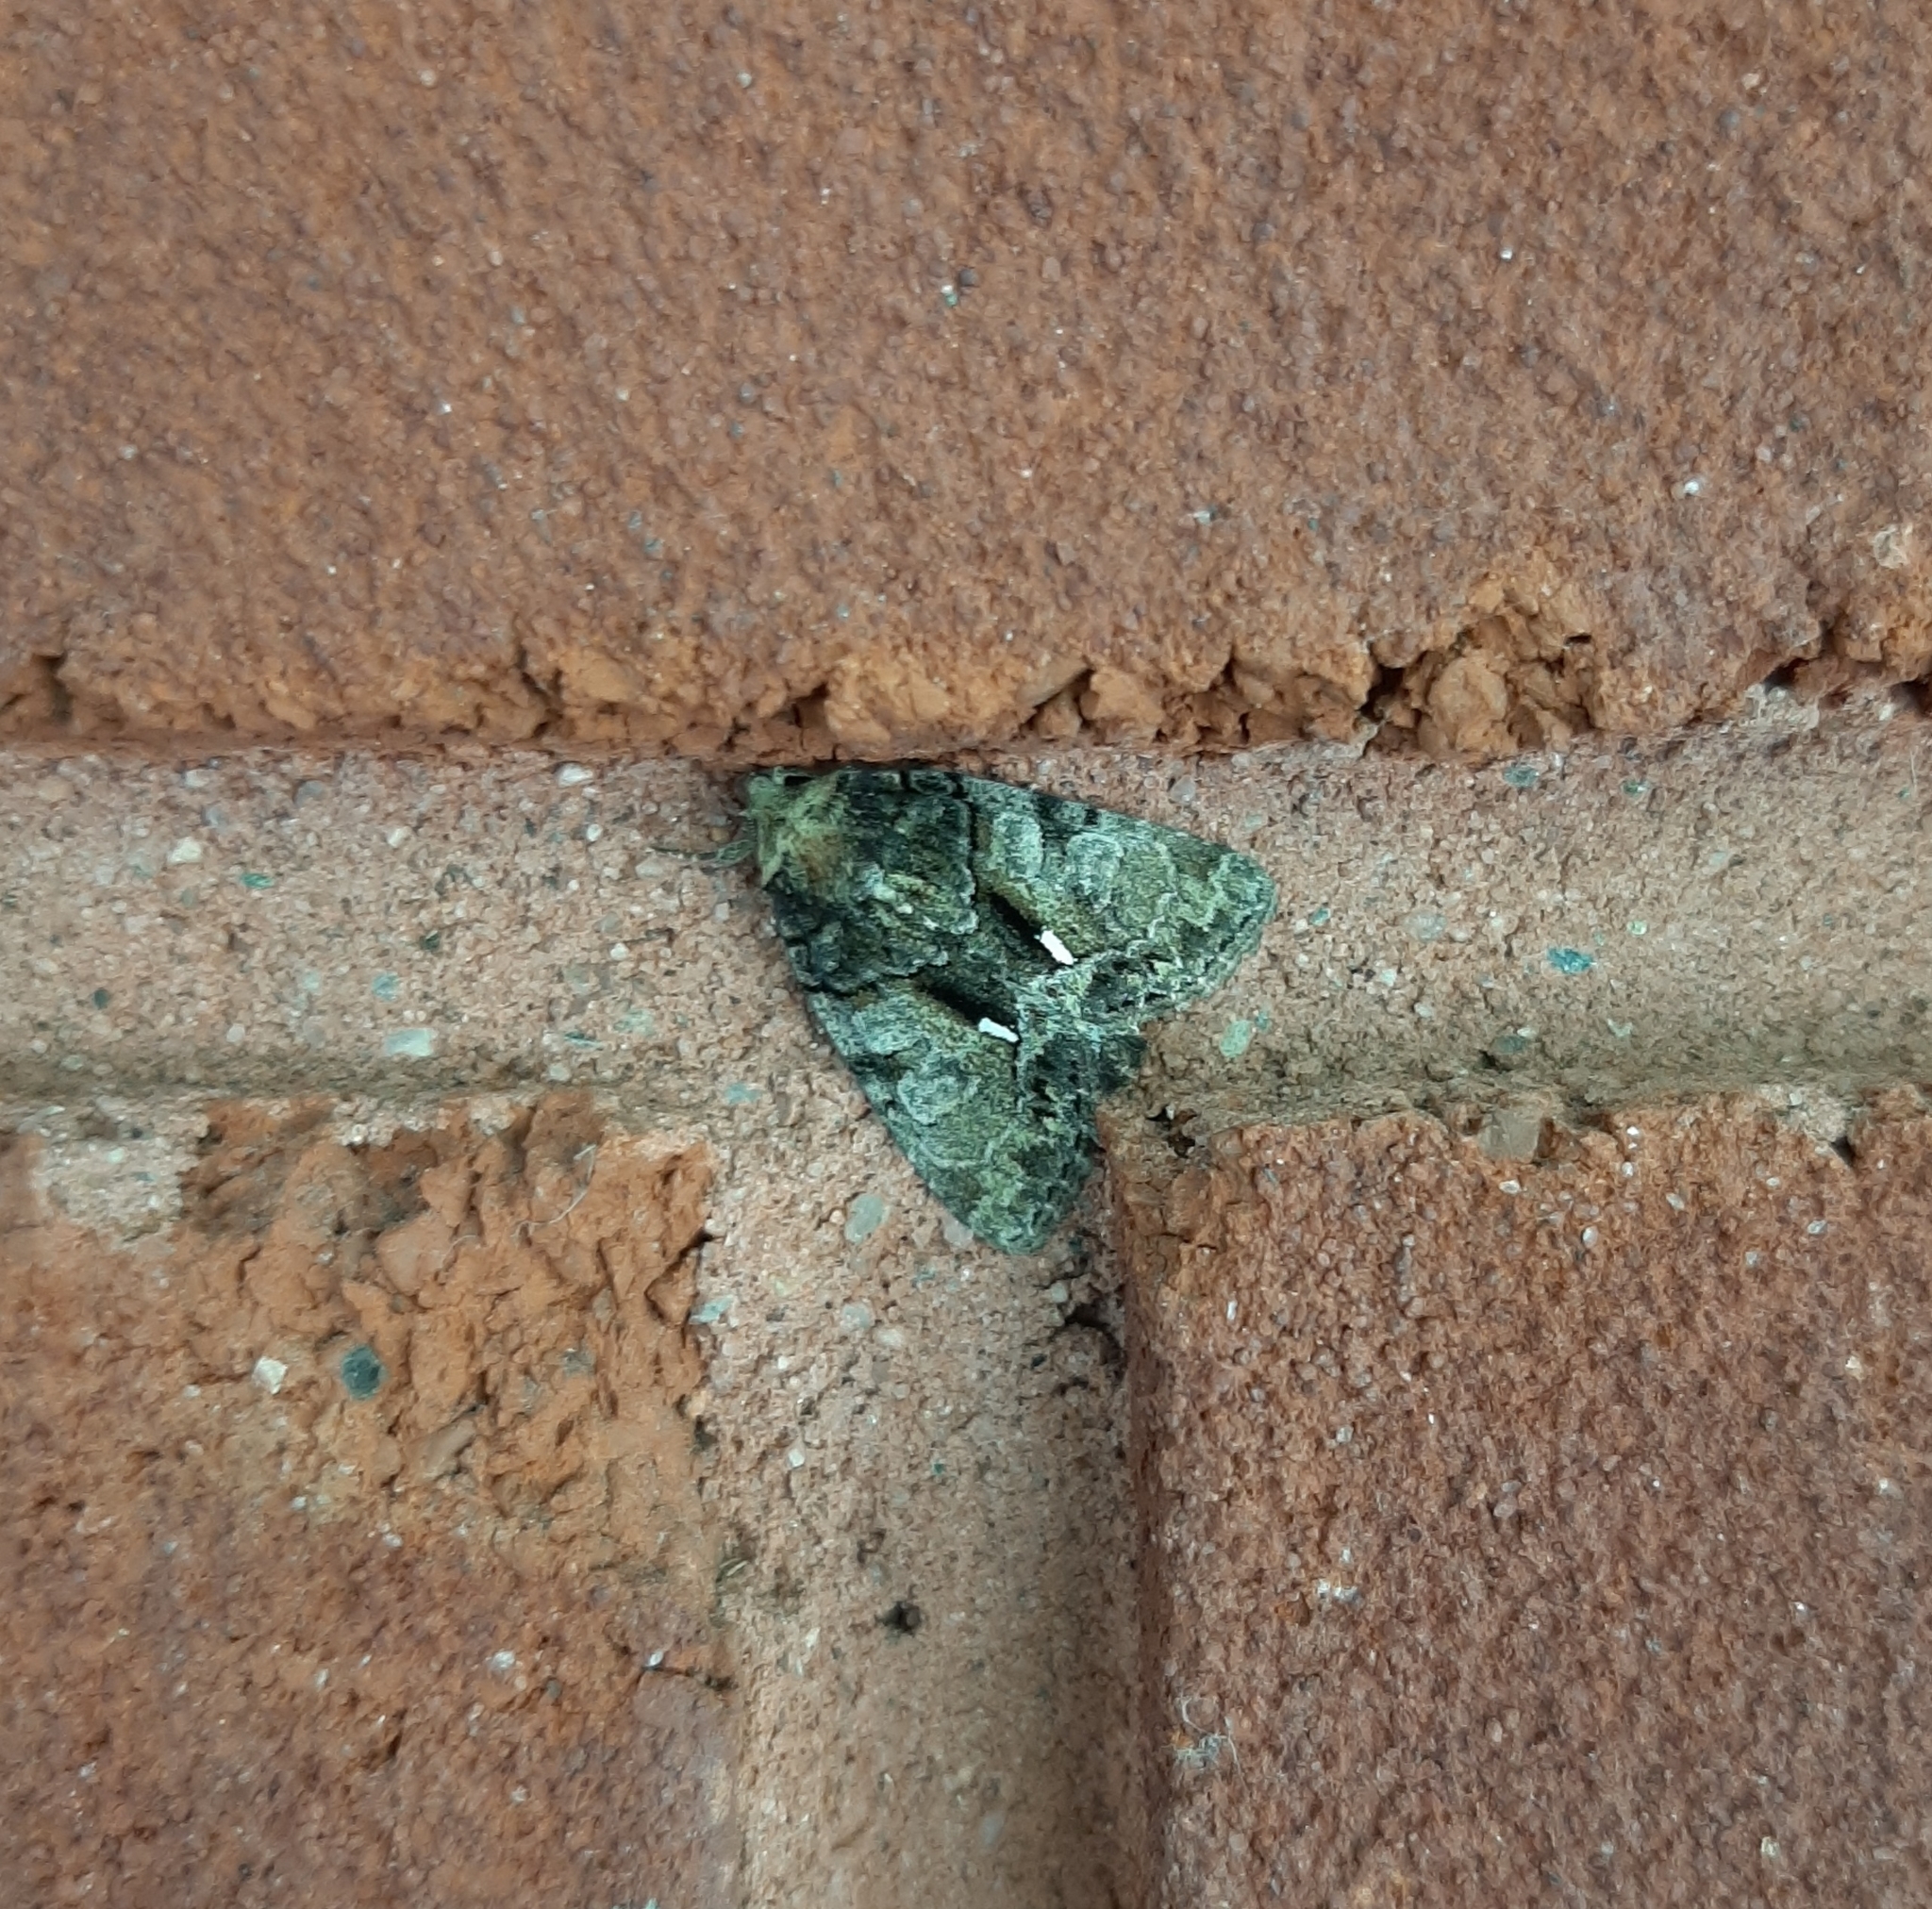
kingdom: Animalia
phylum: Arthropoda
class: Insecta
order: Lepidoptera
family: Noctuidae
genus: Chytonix
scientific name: Chytonix palliatricula
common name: Cloaked marvel
